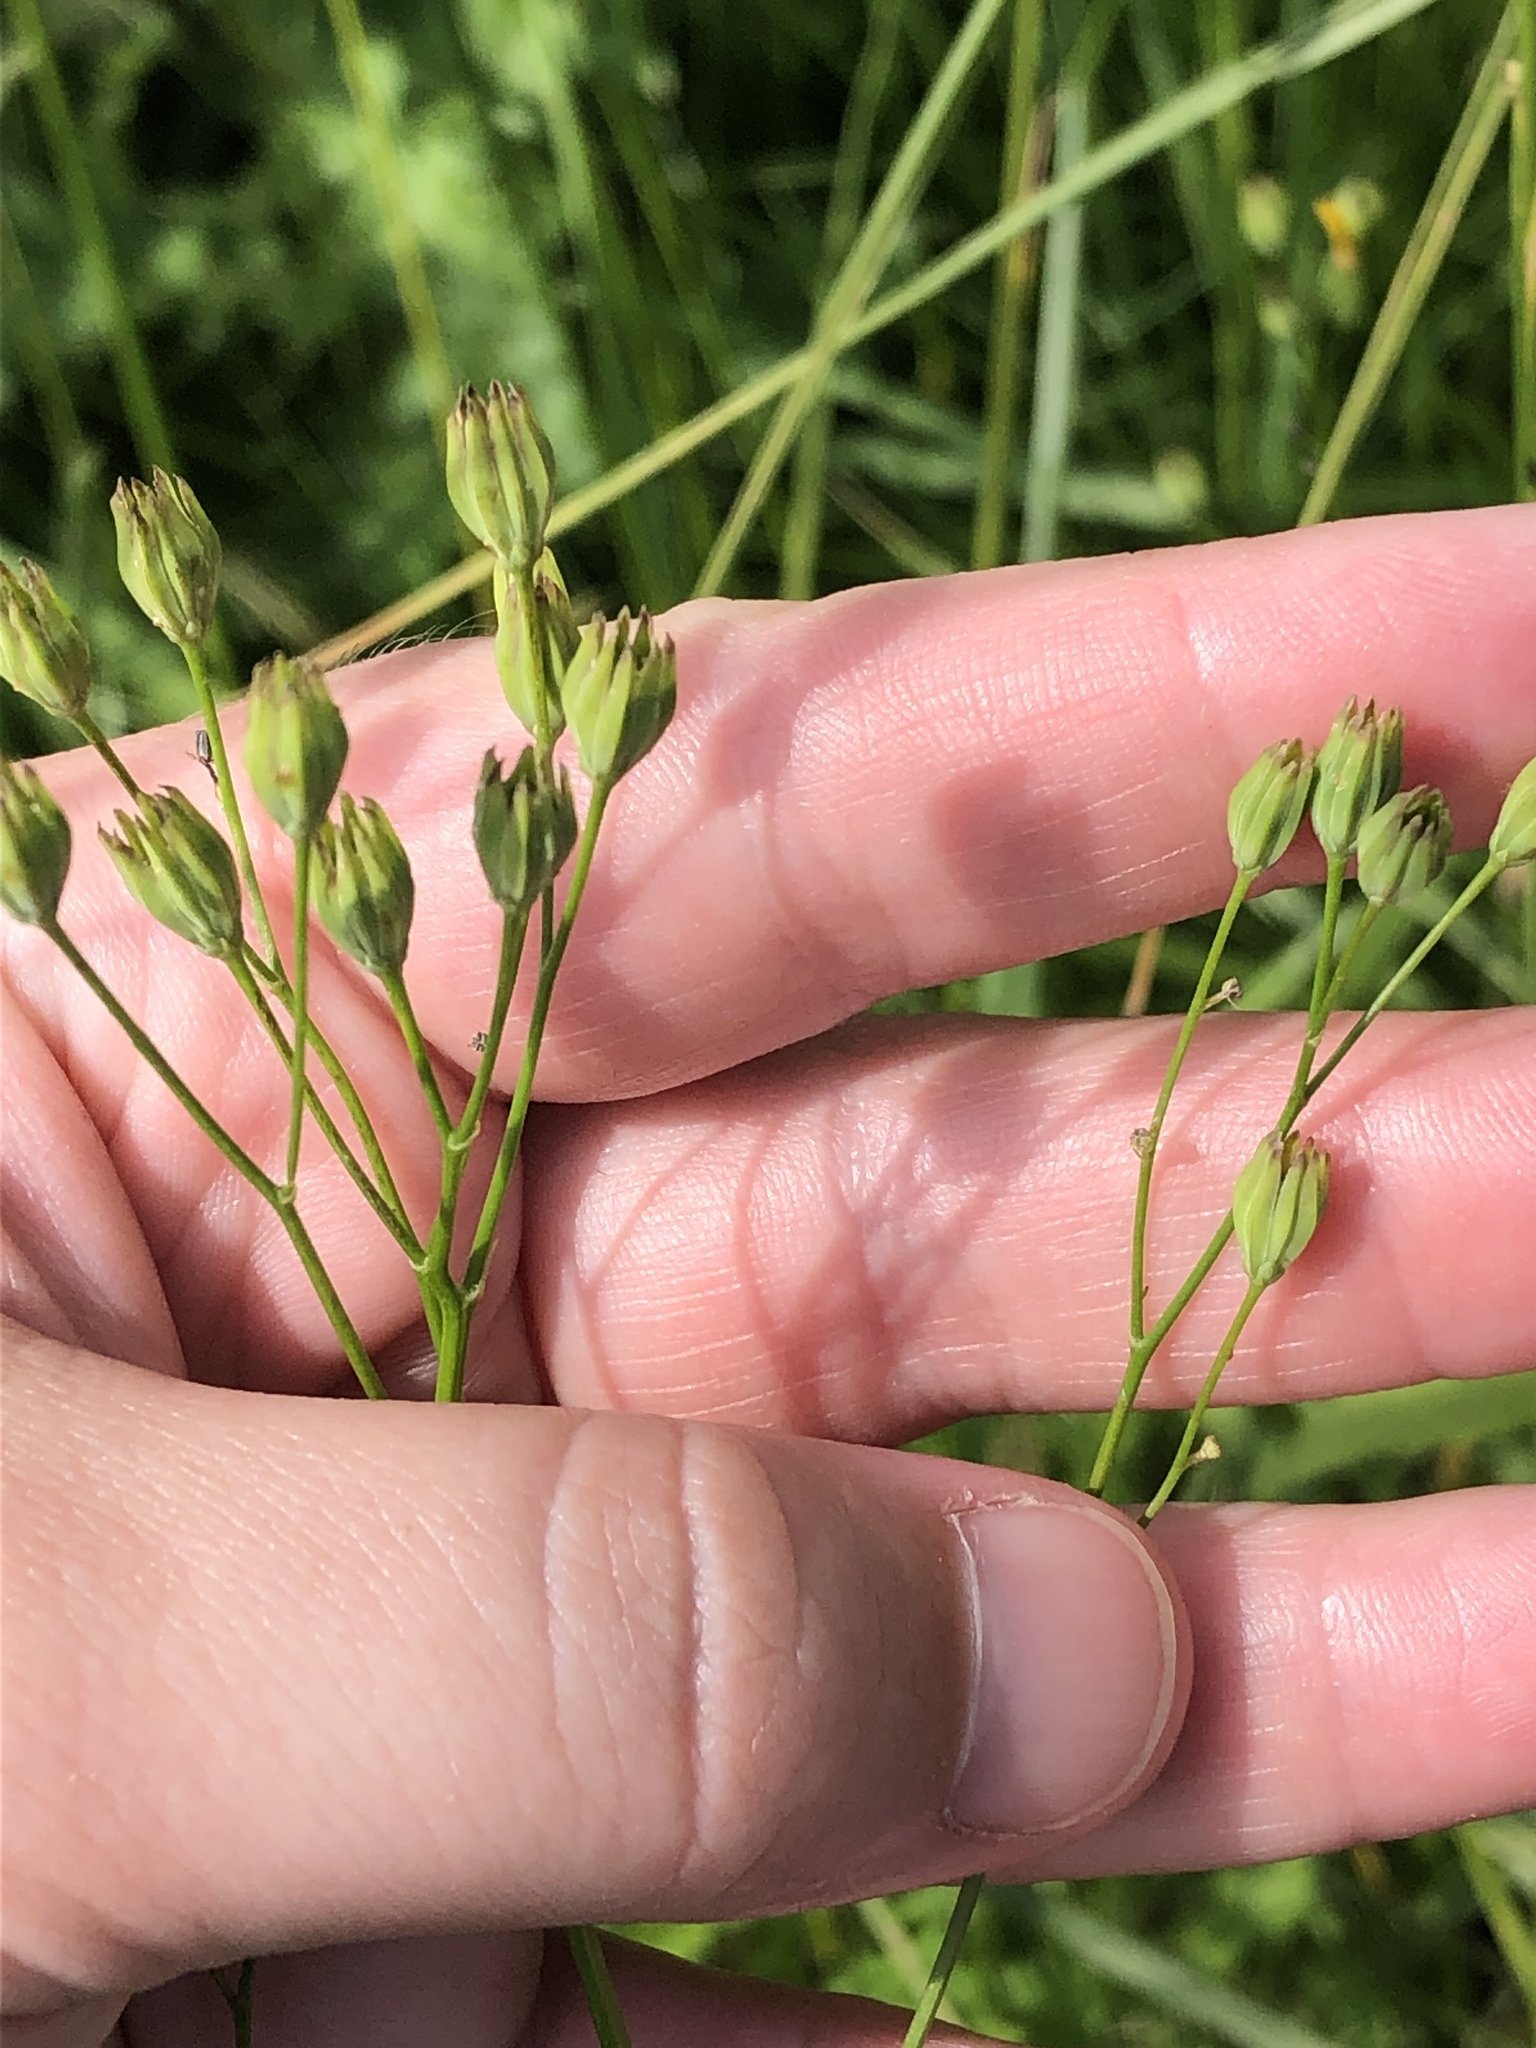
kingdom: Plantae
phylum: Tracheophyta
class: Magnoliopsida
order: Asterales
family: Asteraceae
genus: Lapsana
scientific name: Lapsana communis
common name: Nipplewort
